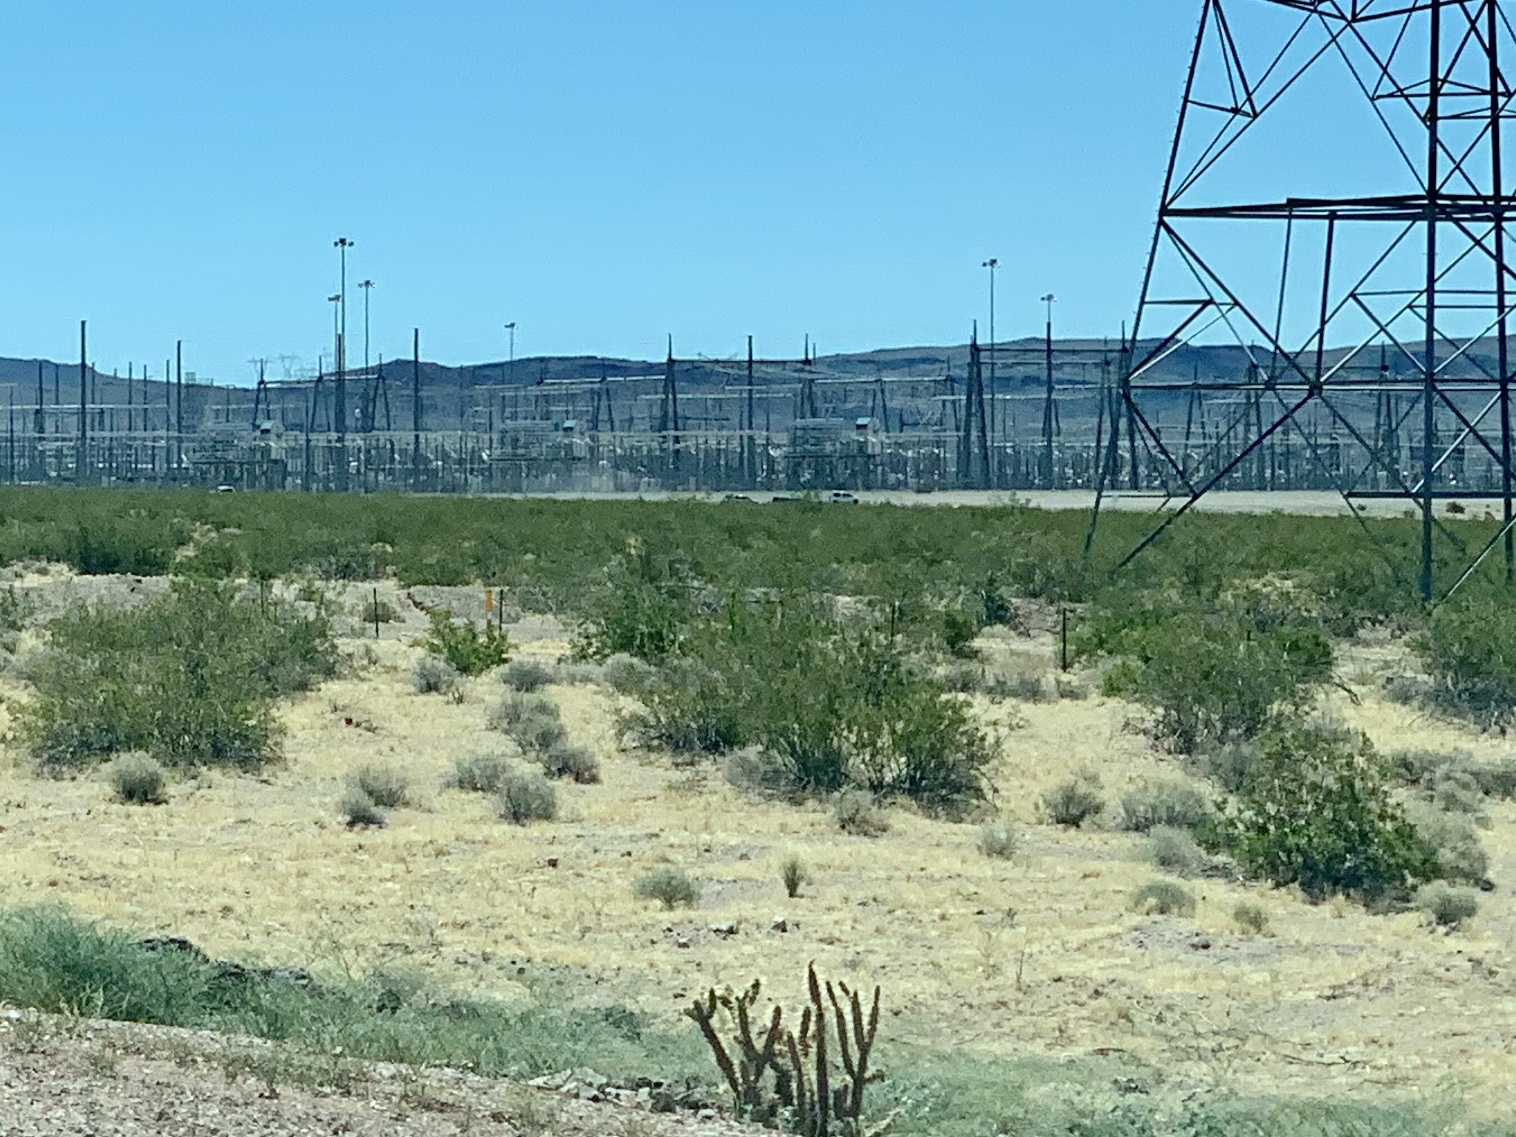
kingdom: Plantae
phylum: Tracheophyta
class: Magnoliopsida
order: Zygophyllales
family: Zygophyllaceae
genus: Larrea
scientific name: Larrea tridentata
